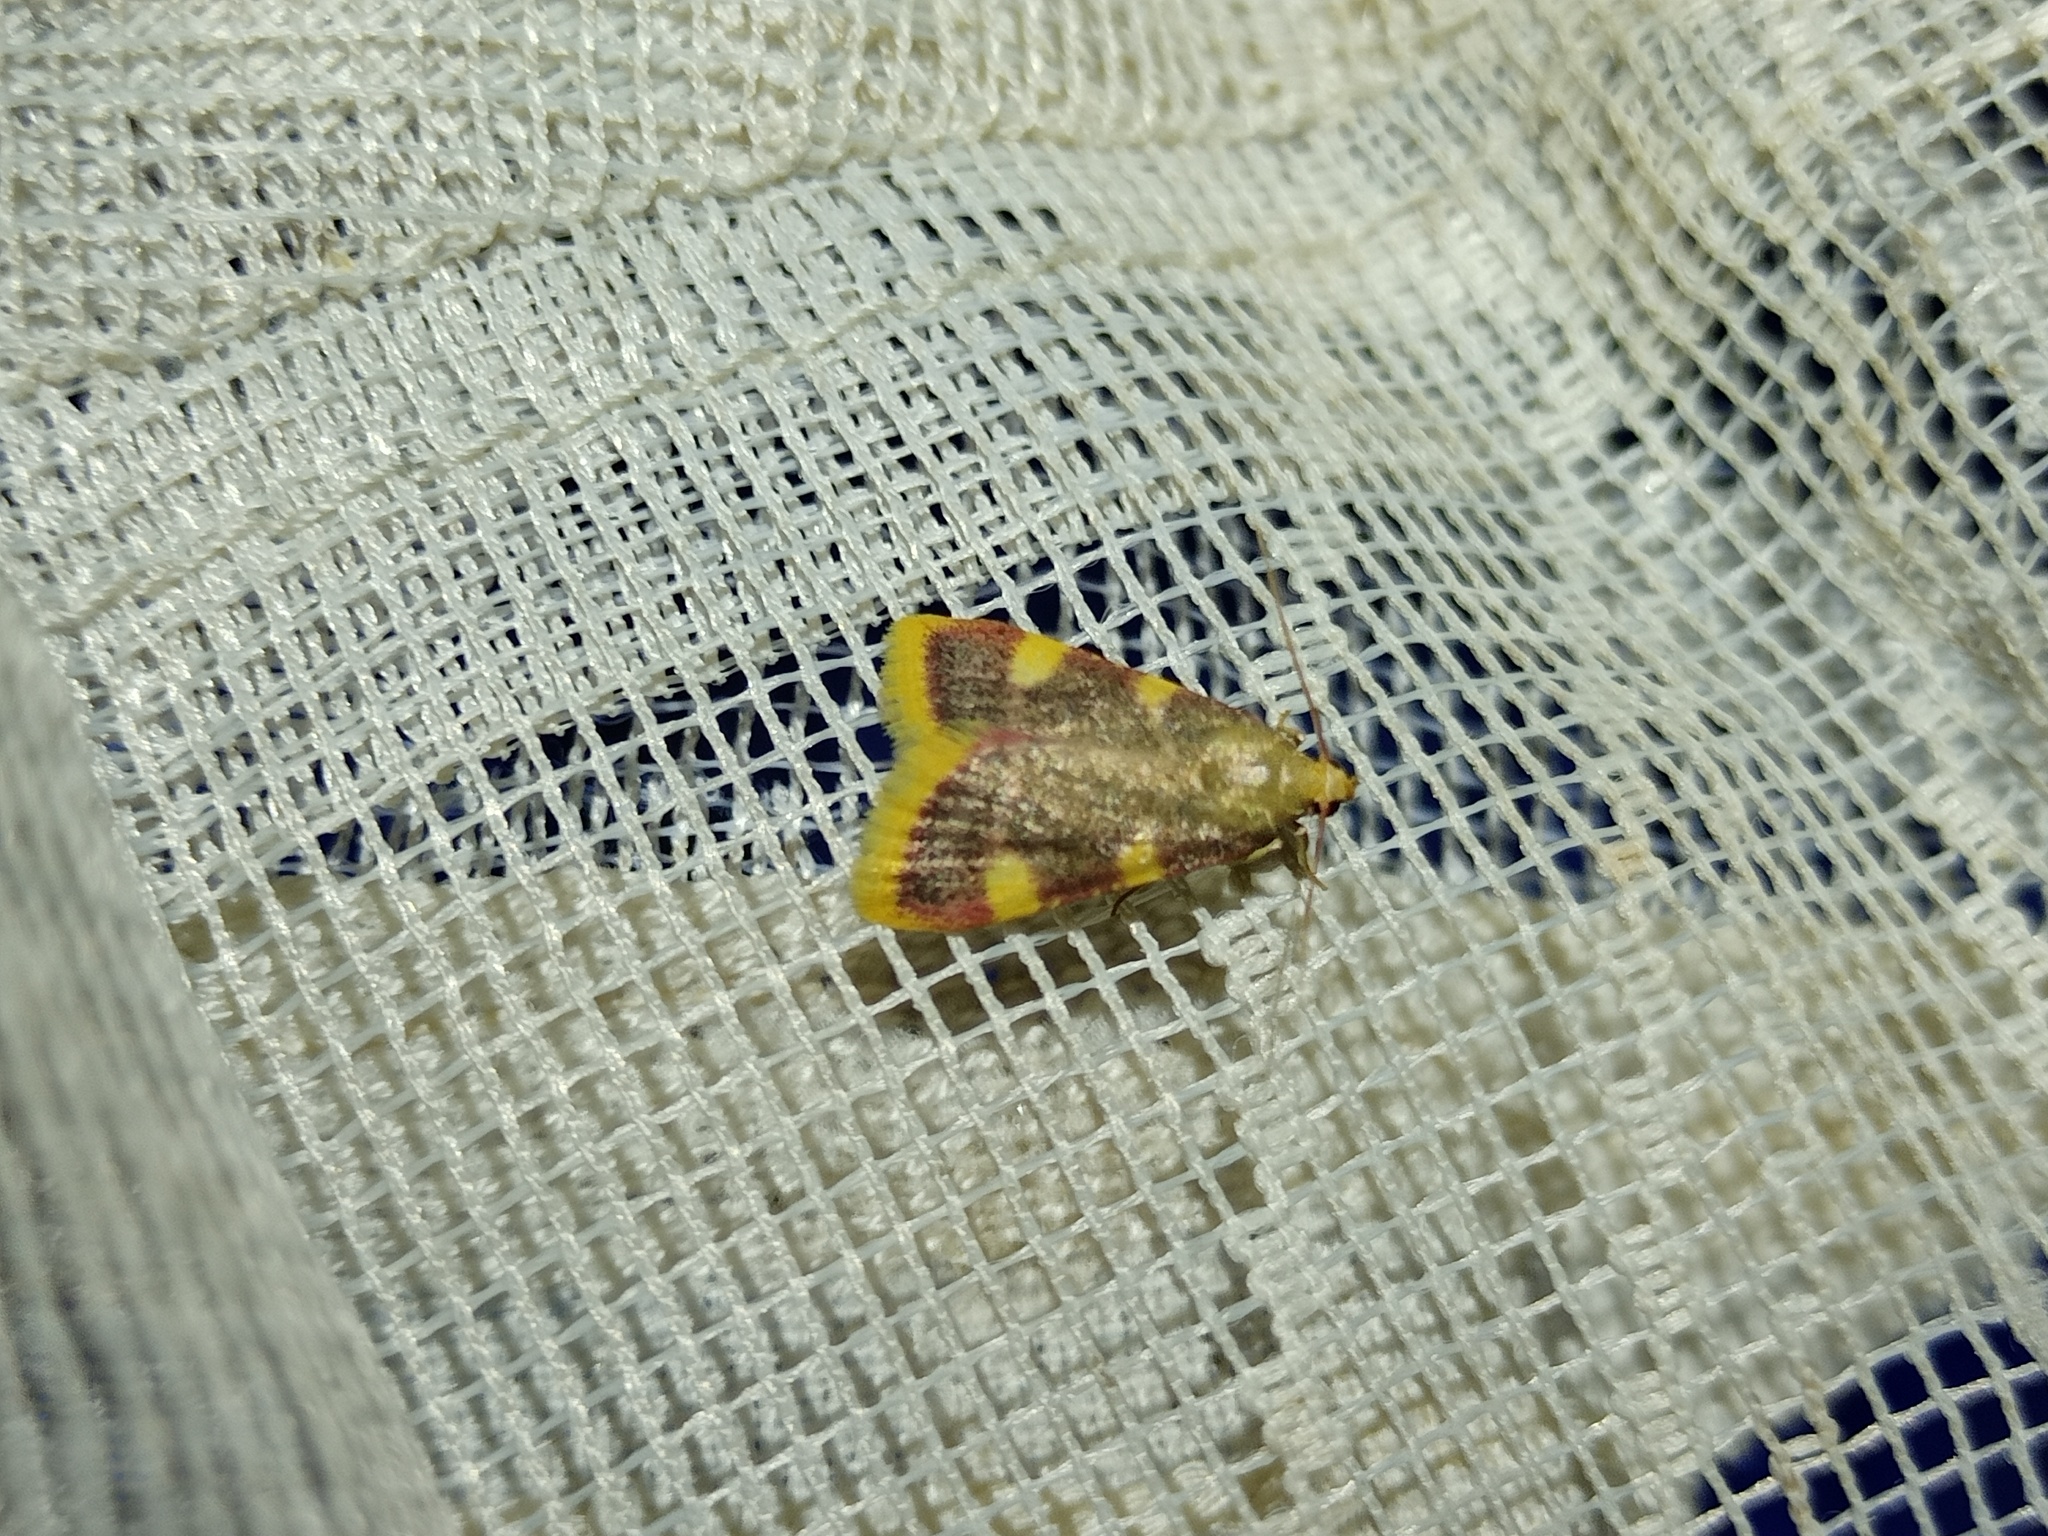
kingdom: Animalia
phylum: Arthropoda
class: Insecta
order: Lepidoptera
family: Pyralidae
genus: Hypsopygia
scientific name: Hypsopygia costalis
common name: Gold triangle
